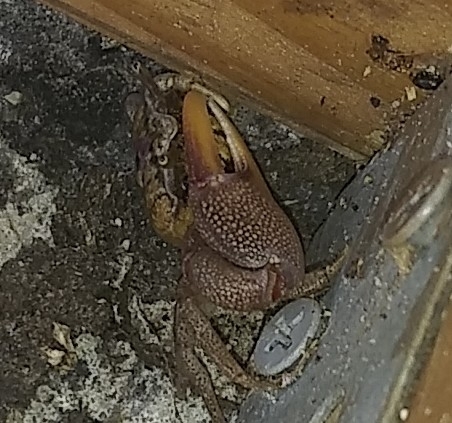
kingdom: Animalia
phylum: Arthropoda
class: Malacostraca
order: Decapoda
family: Ocypodidae
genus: Leptuca
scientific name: Leptuca pugilator
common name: Atlantic sand fiddler crab
